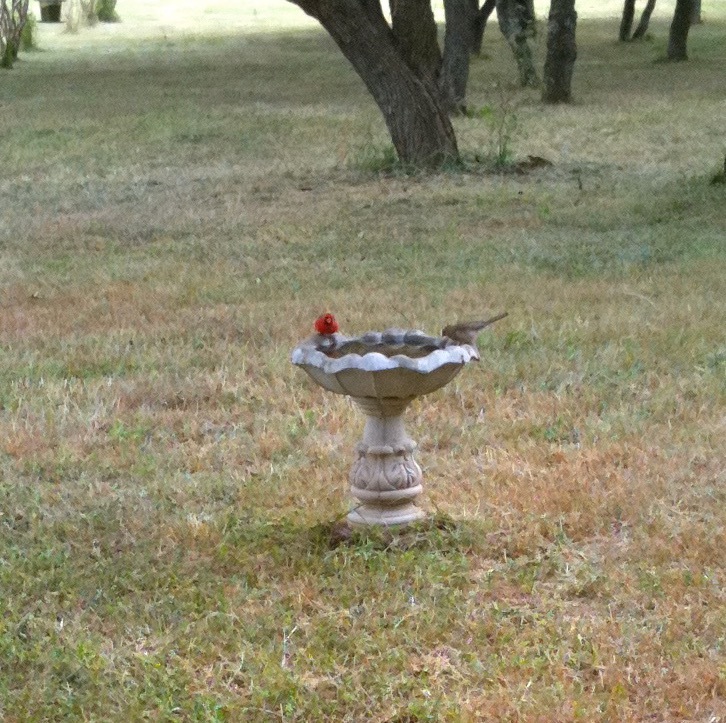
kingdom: Animalia
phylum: Chordata
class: Aves
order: Passeriformes
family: Cardinalidae
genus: Cardinalis
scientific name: Cardinalis cardinalis
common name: Northern cardinal
